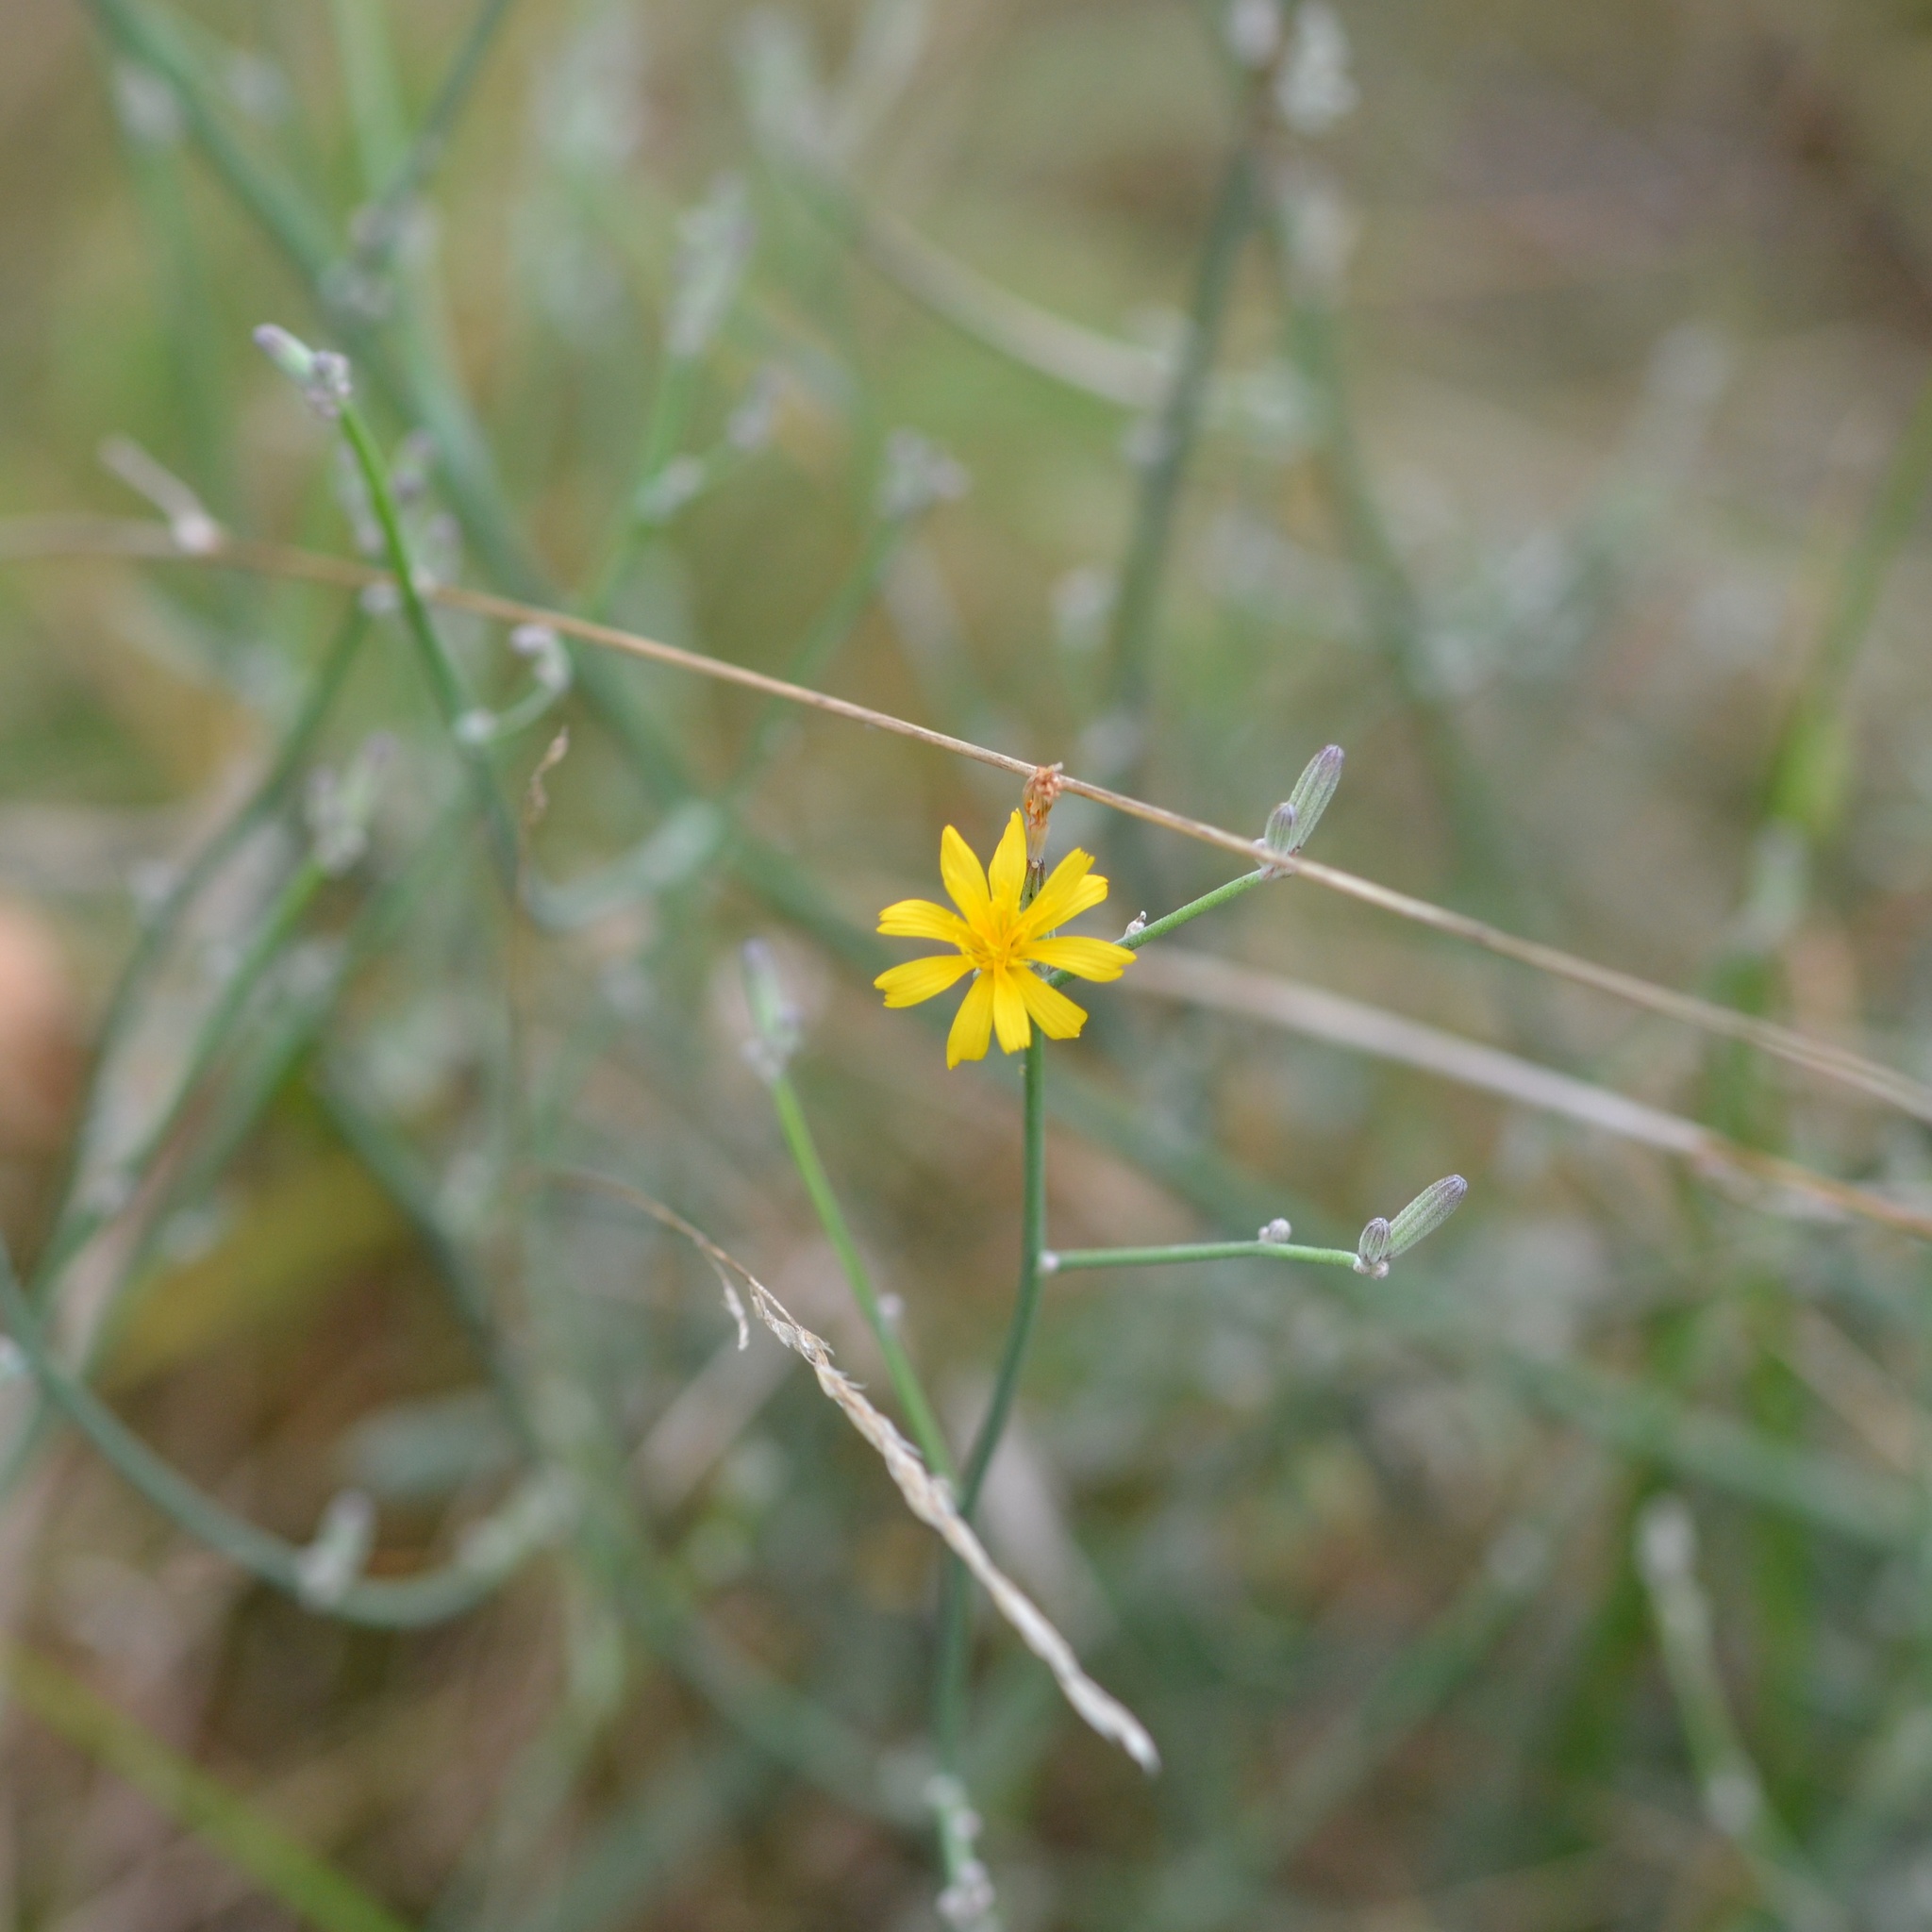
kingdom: Plantae
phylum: Tracheophyta
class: Magnoliopsida
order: Asterales
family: Asteraceae
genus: Chondrilla
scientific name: Chondrilla juncea
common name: Skeleton weed
